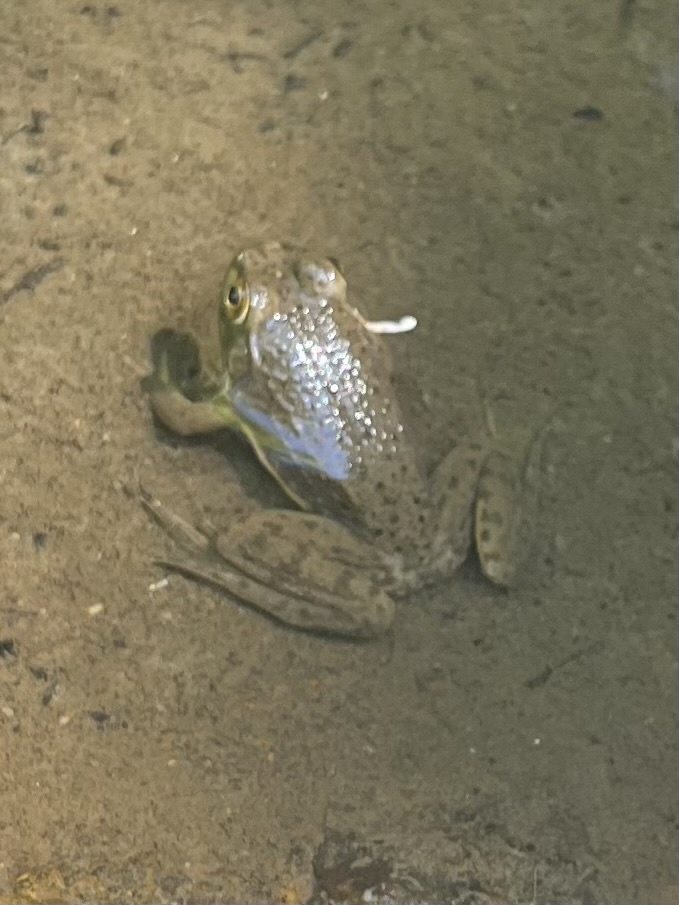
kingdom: Animalia
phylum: Chordata
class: Amphibia
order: Anura
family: Ranidae
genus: Lithobates
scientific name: Lithobates catesbeianus
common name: American bullfrog
